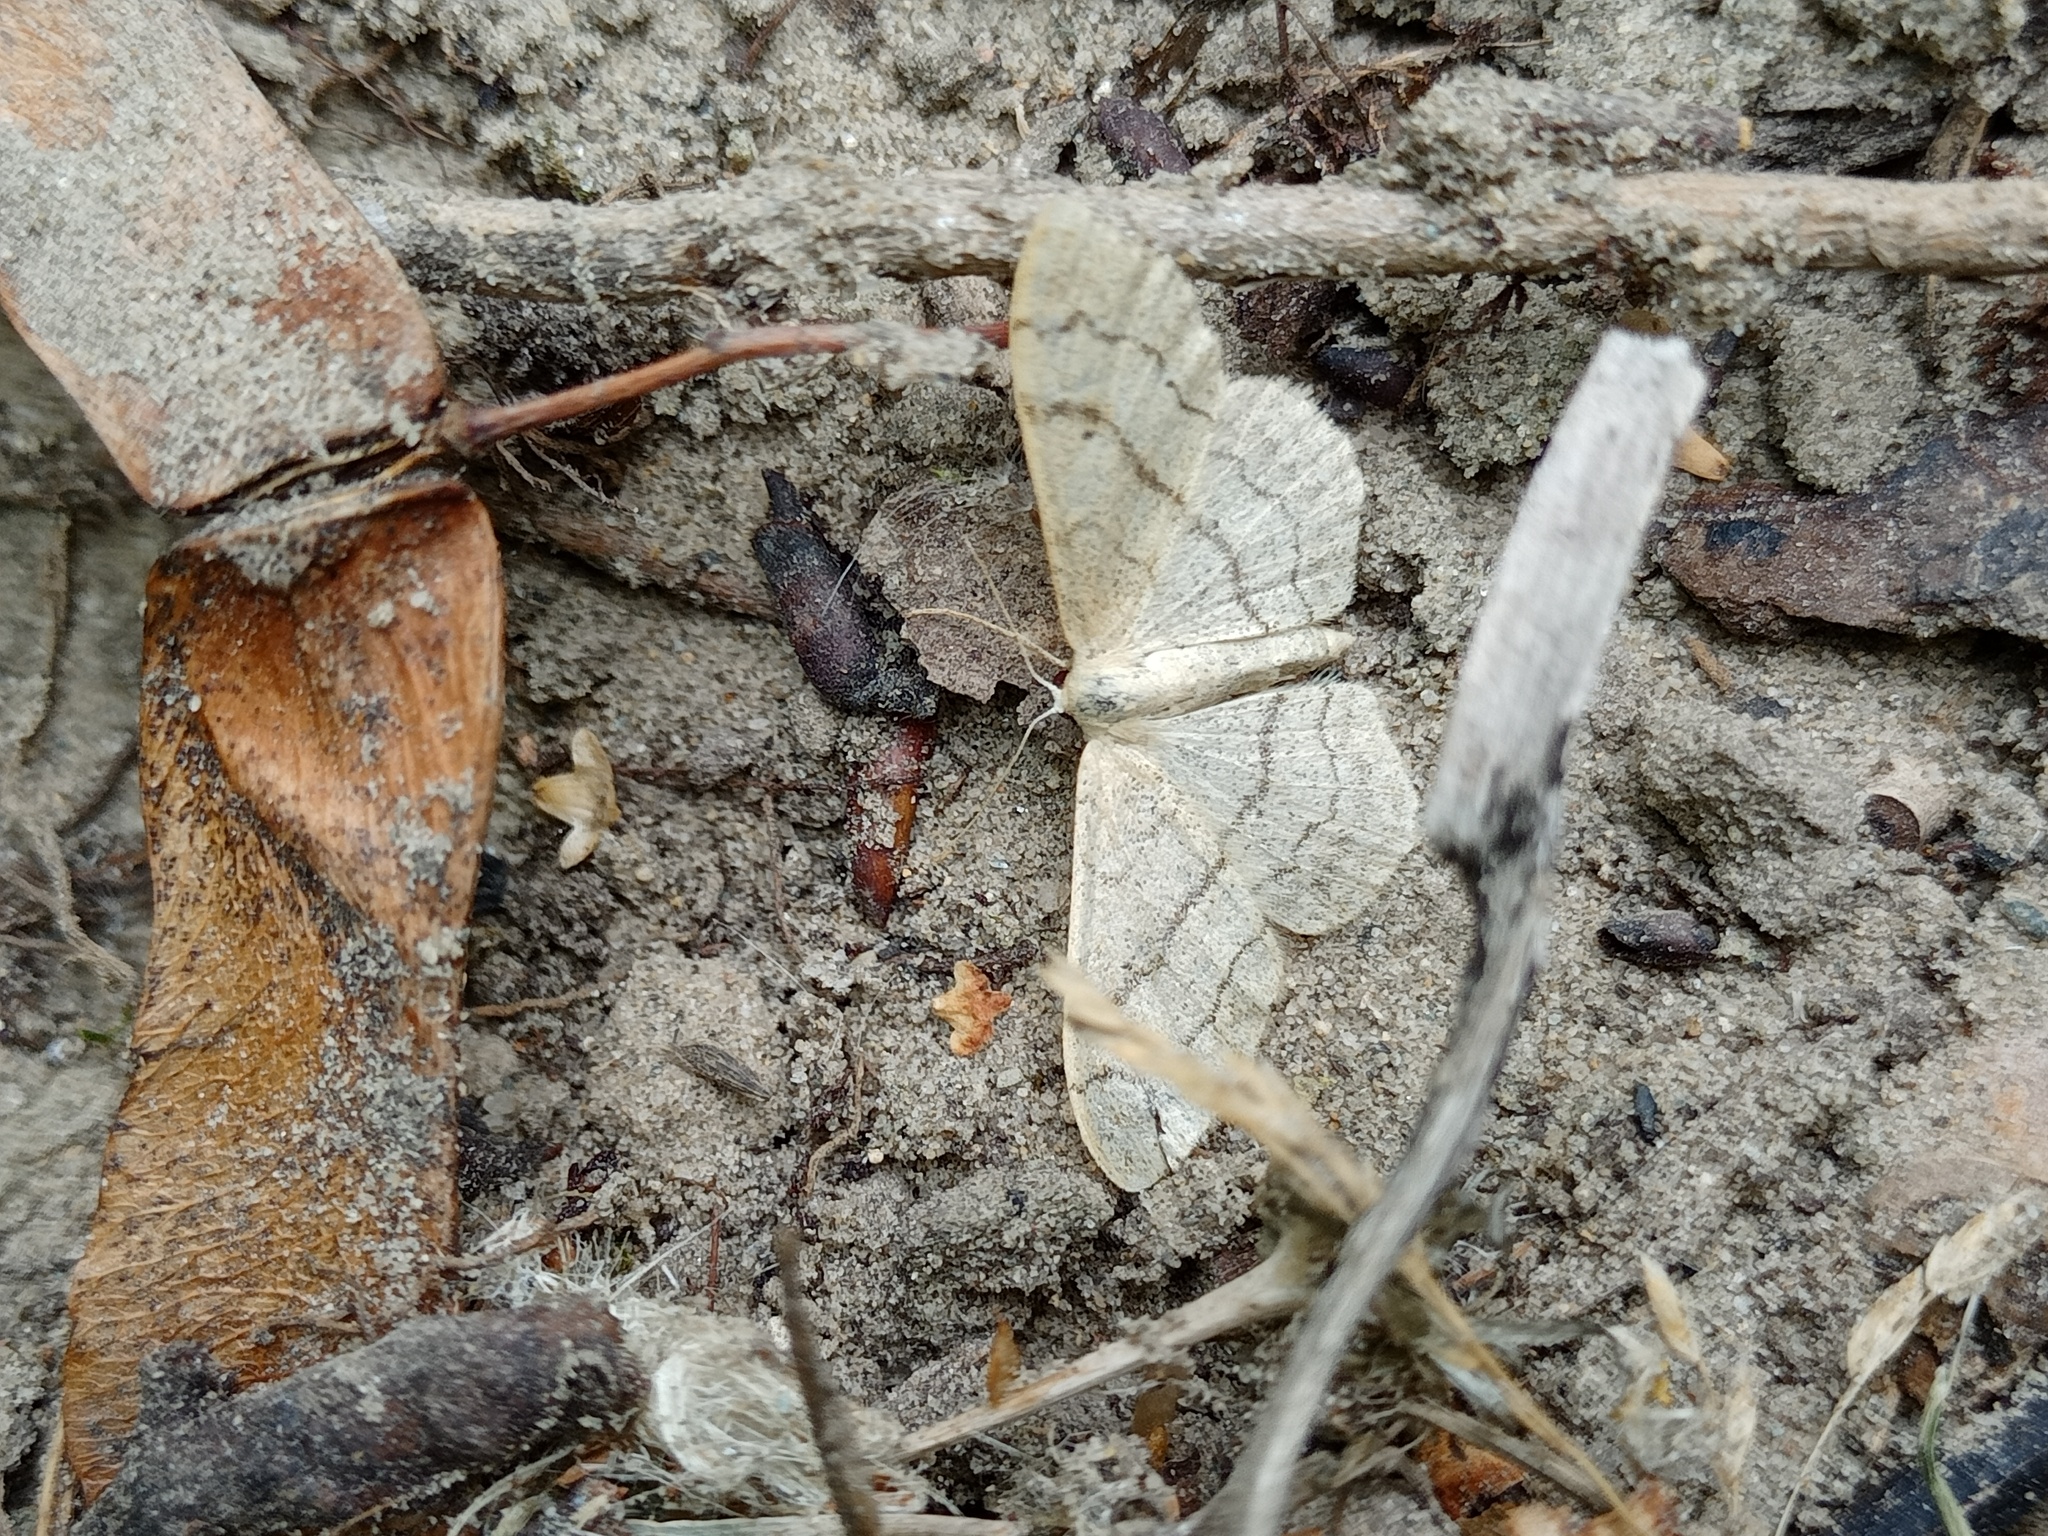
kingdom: Animalia
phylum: Arthropoda
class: Insecta
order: Lepidoptera
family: Geometridae
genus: Idaea
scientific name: Idaea aversata
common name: Riband wave
